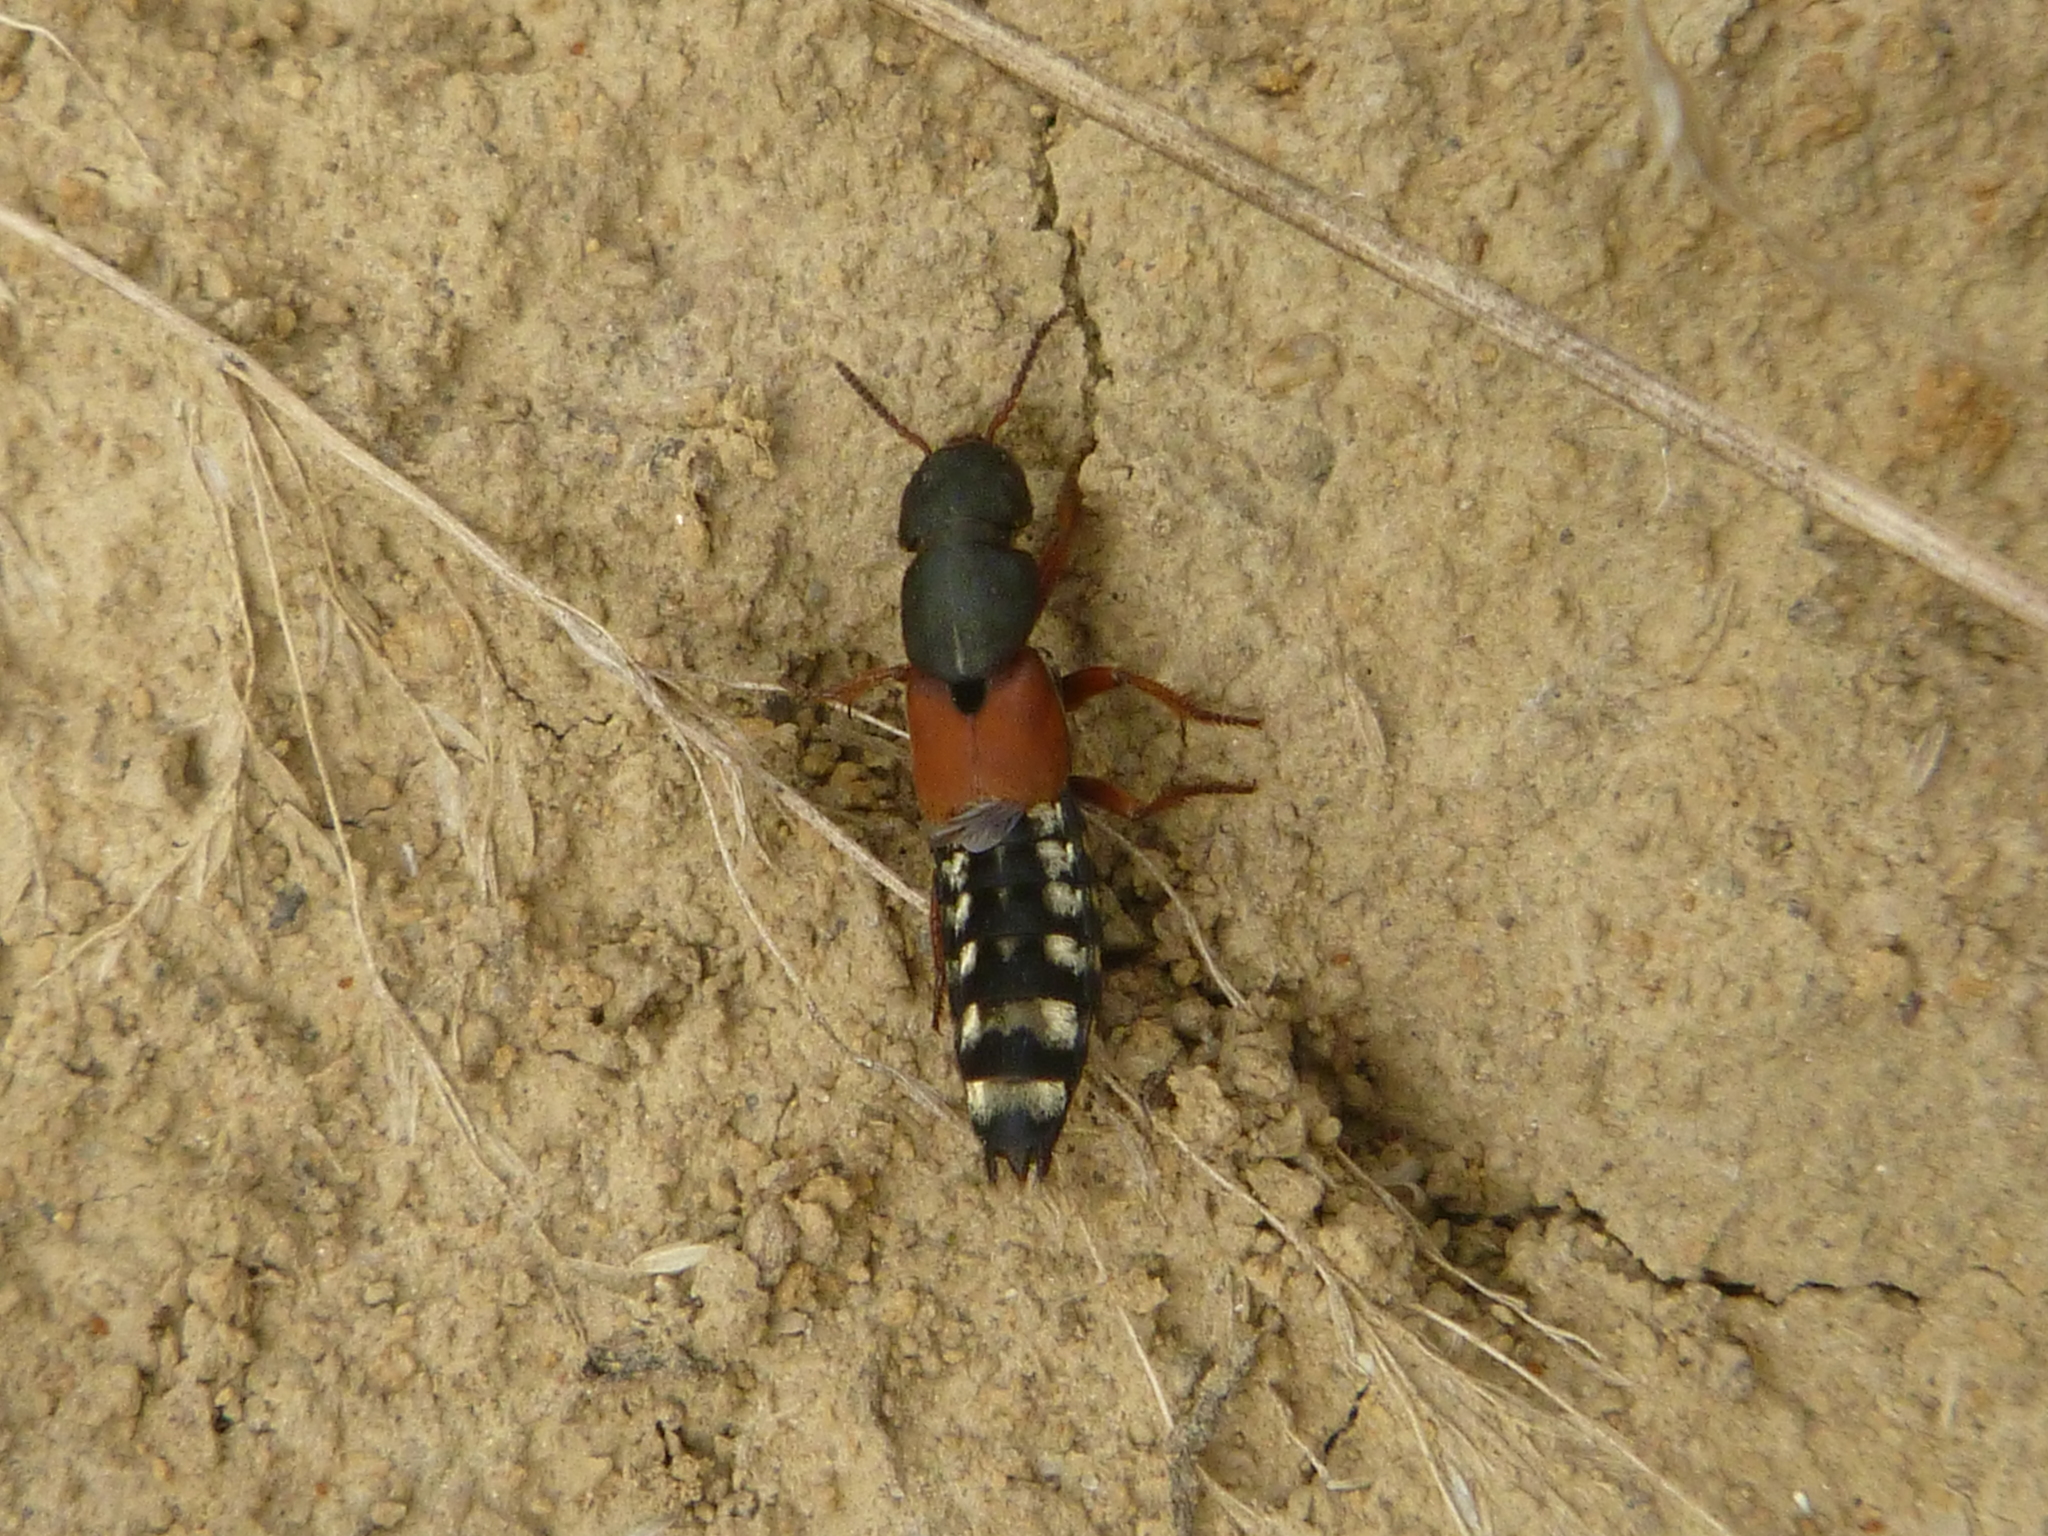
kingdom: Animalia
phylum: Arthropoda
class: Insecta
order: Coleoptera
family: Staphylinidae
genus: Platydracus
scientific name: Platydracus stercorarius
